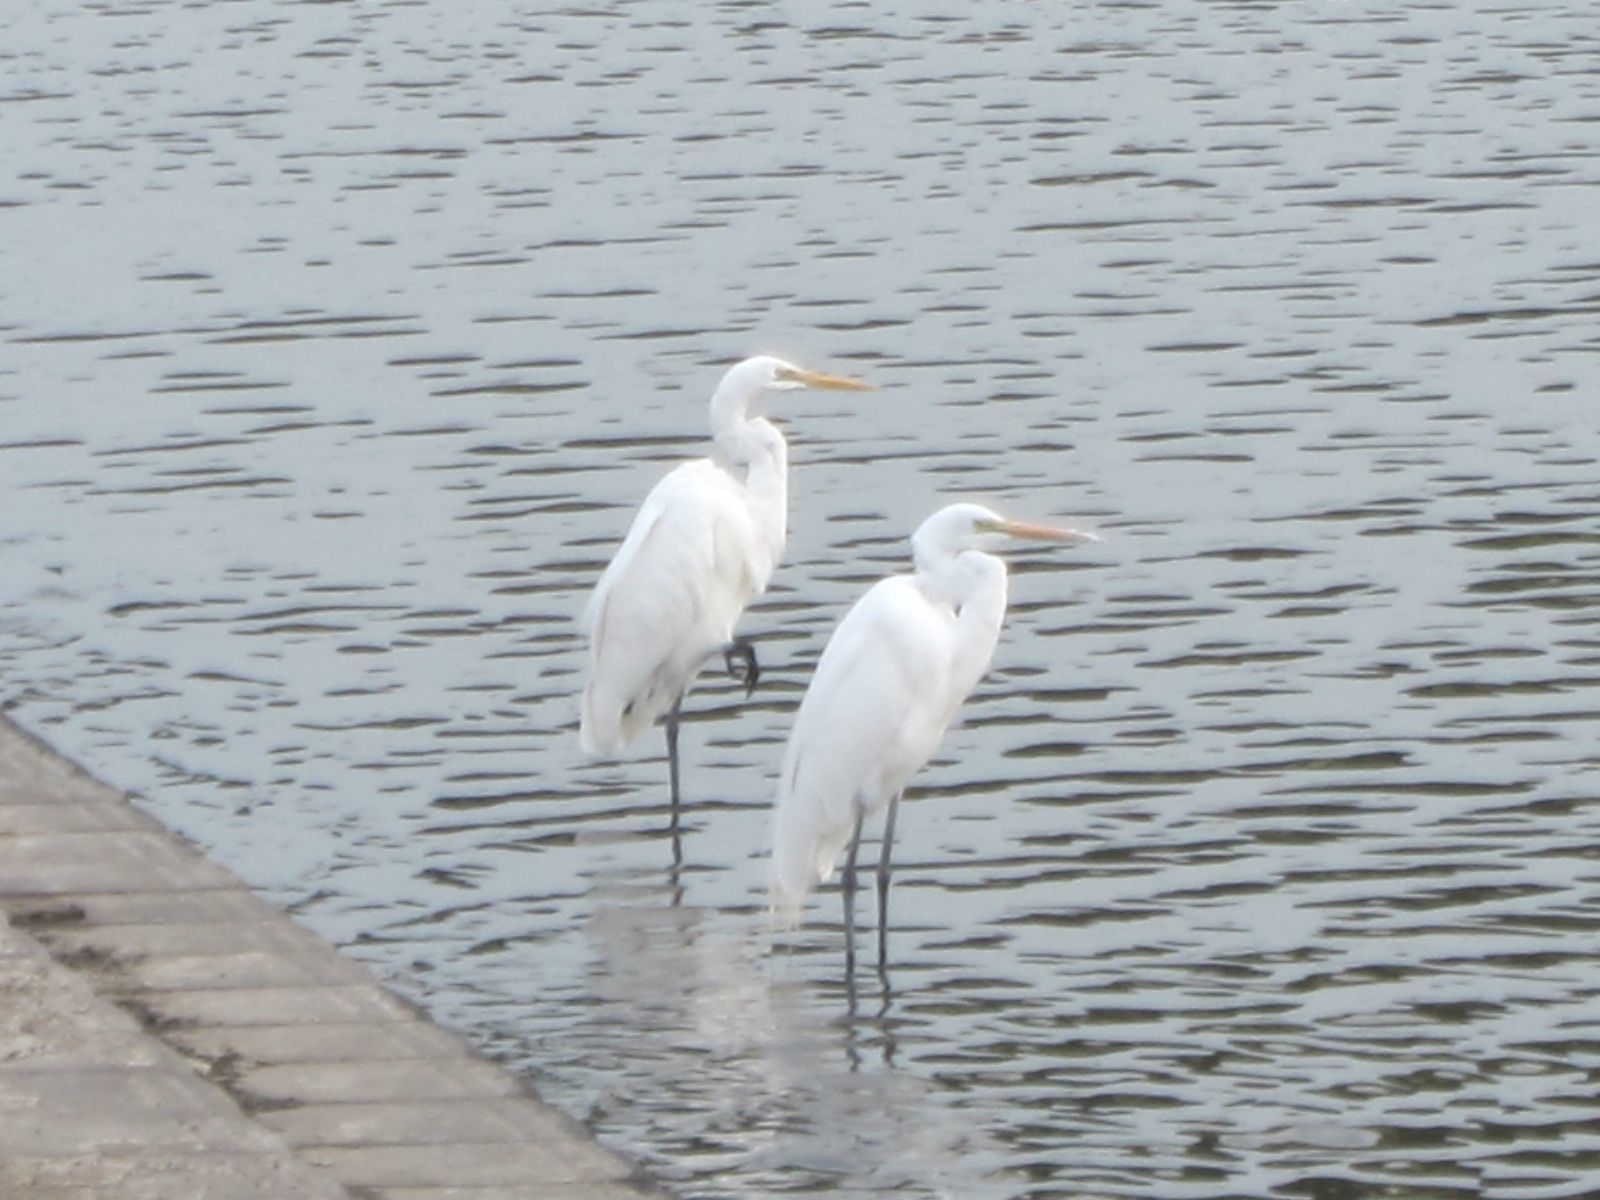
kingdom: Animalia
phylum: Chordata
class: Aves
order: Pelecaniformes
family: Ardeidae
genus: Ardea
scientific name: Ardea alba
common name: Great egret
